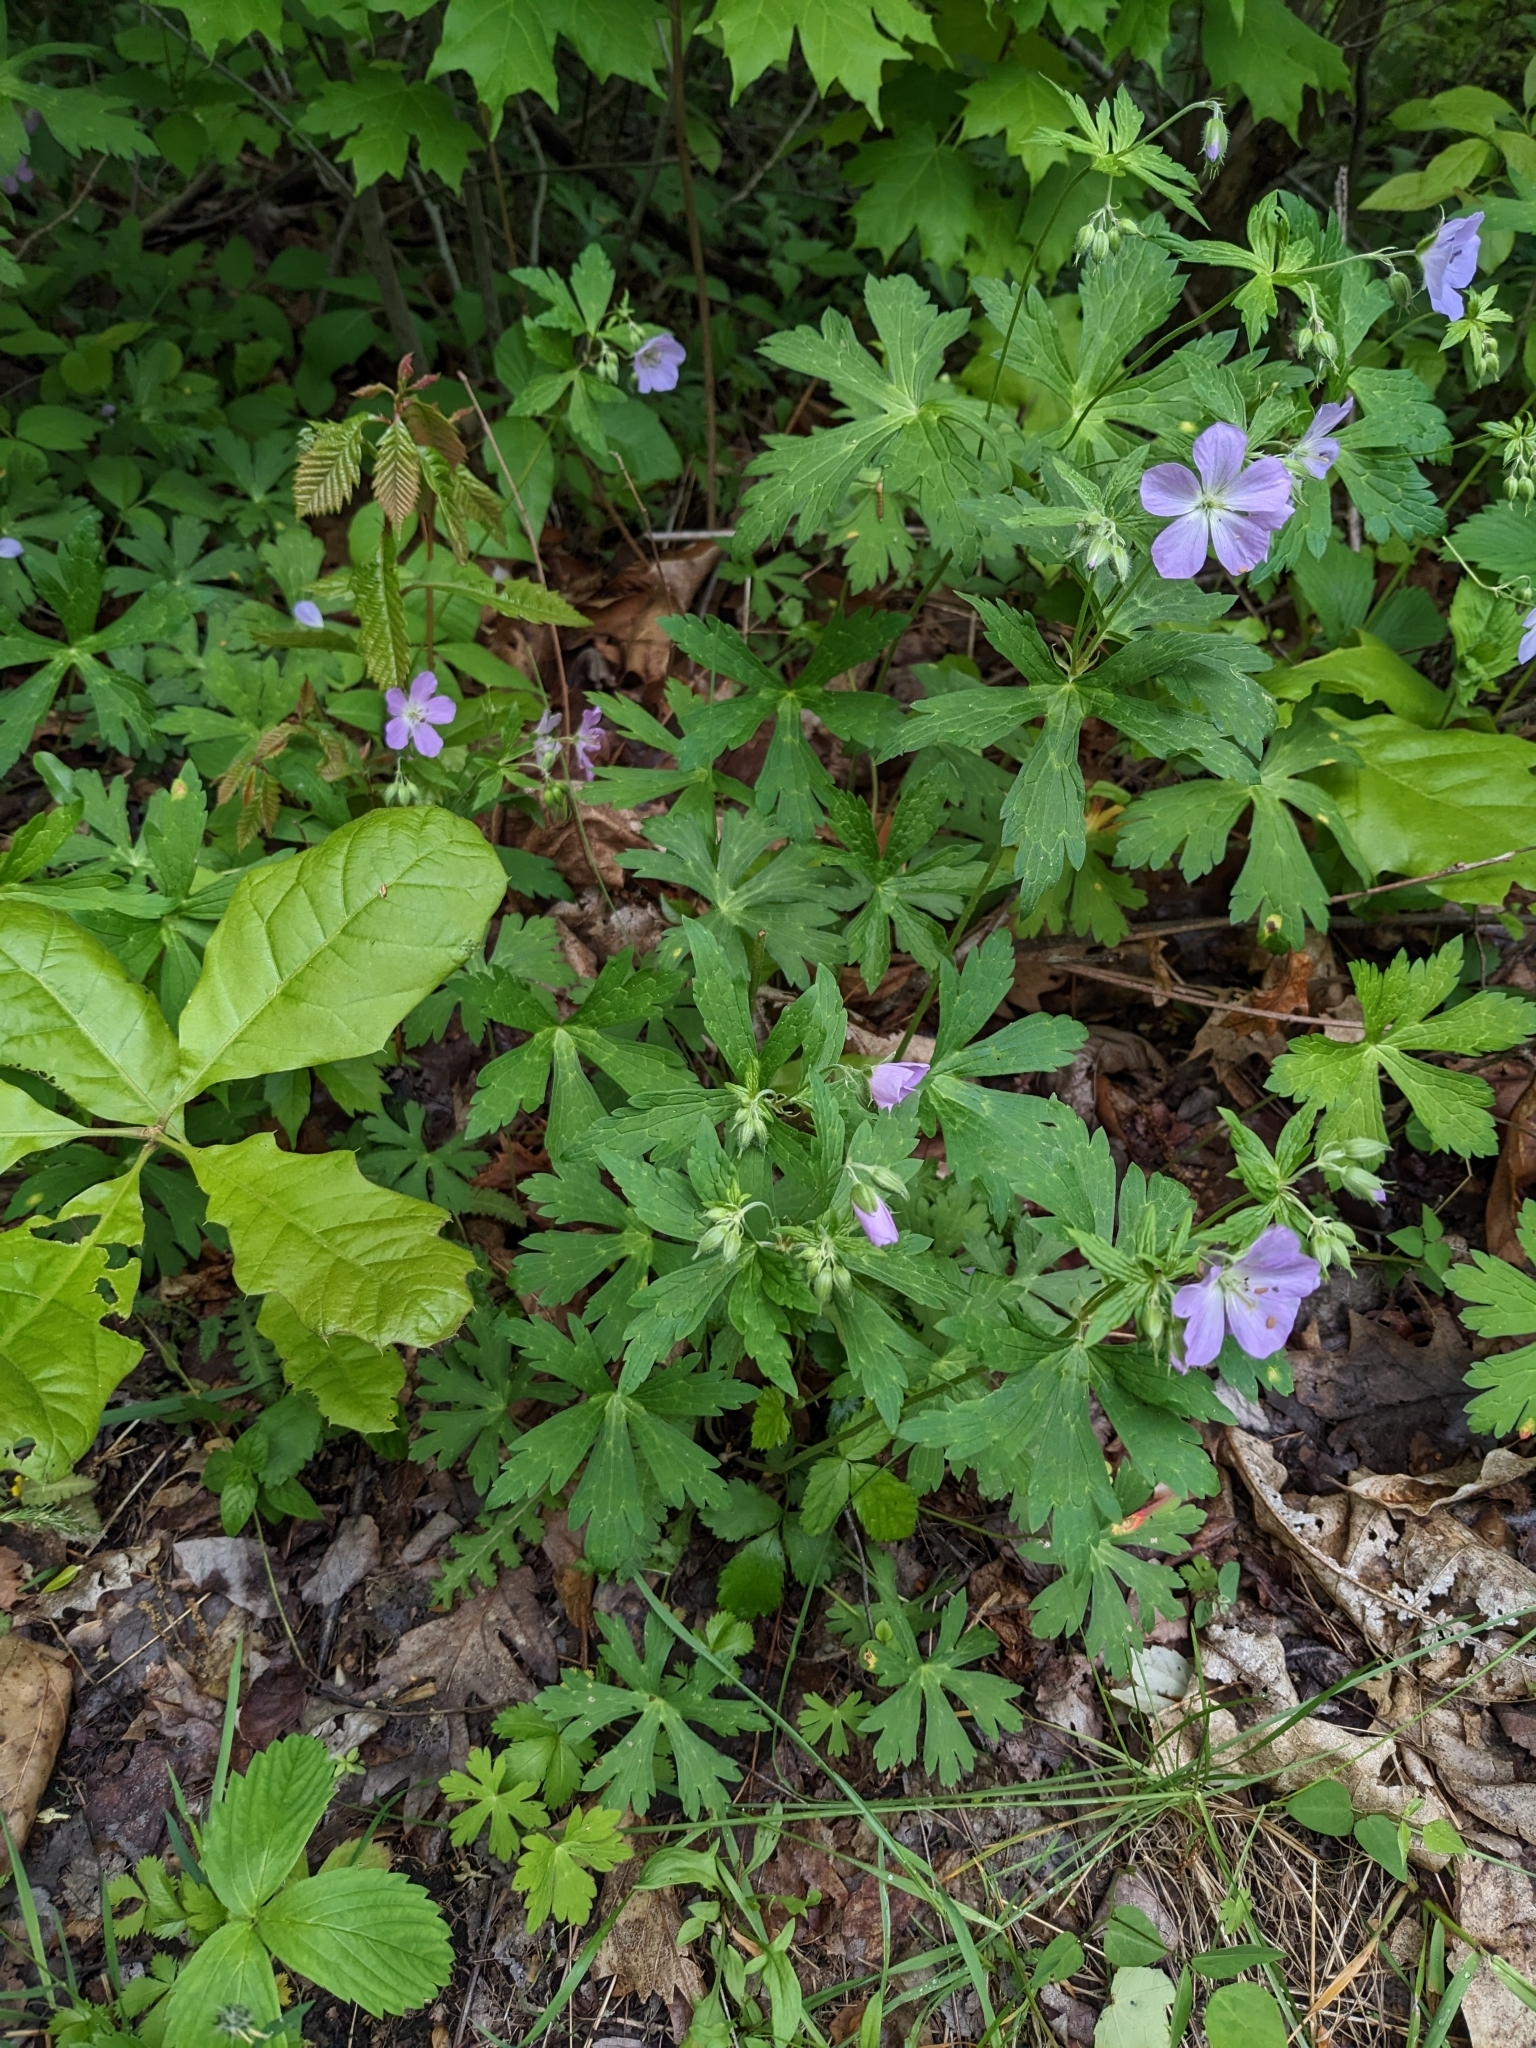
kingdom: Plantae
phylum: Tracheophyta
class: Magnoliopsida
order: Geraniales
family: Geraniaceae
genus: Geranium
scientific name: Geranium maculatum
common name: Spotted geranium
